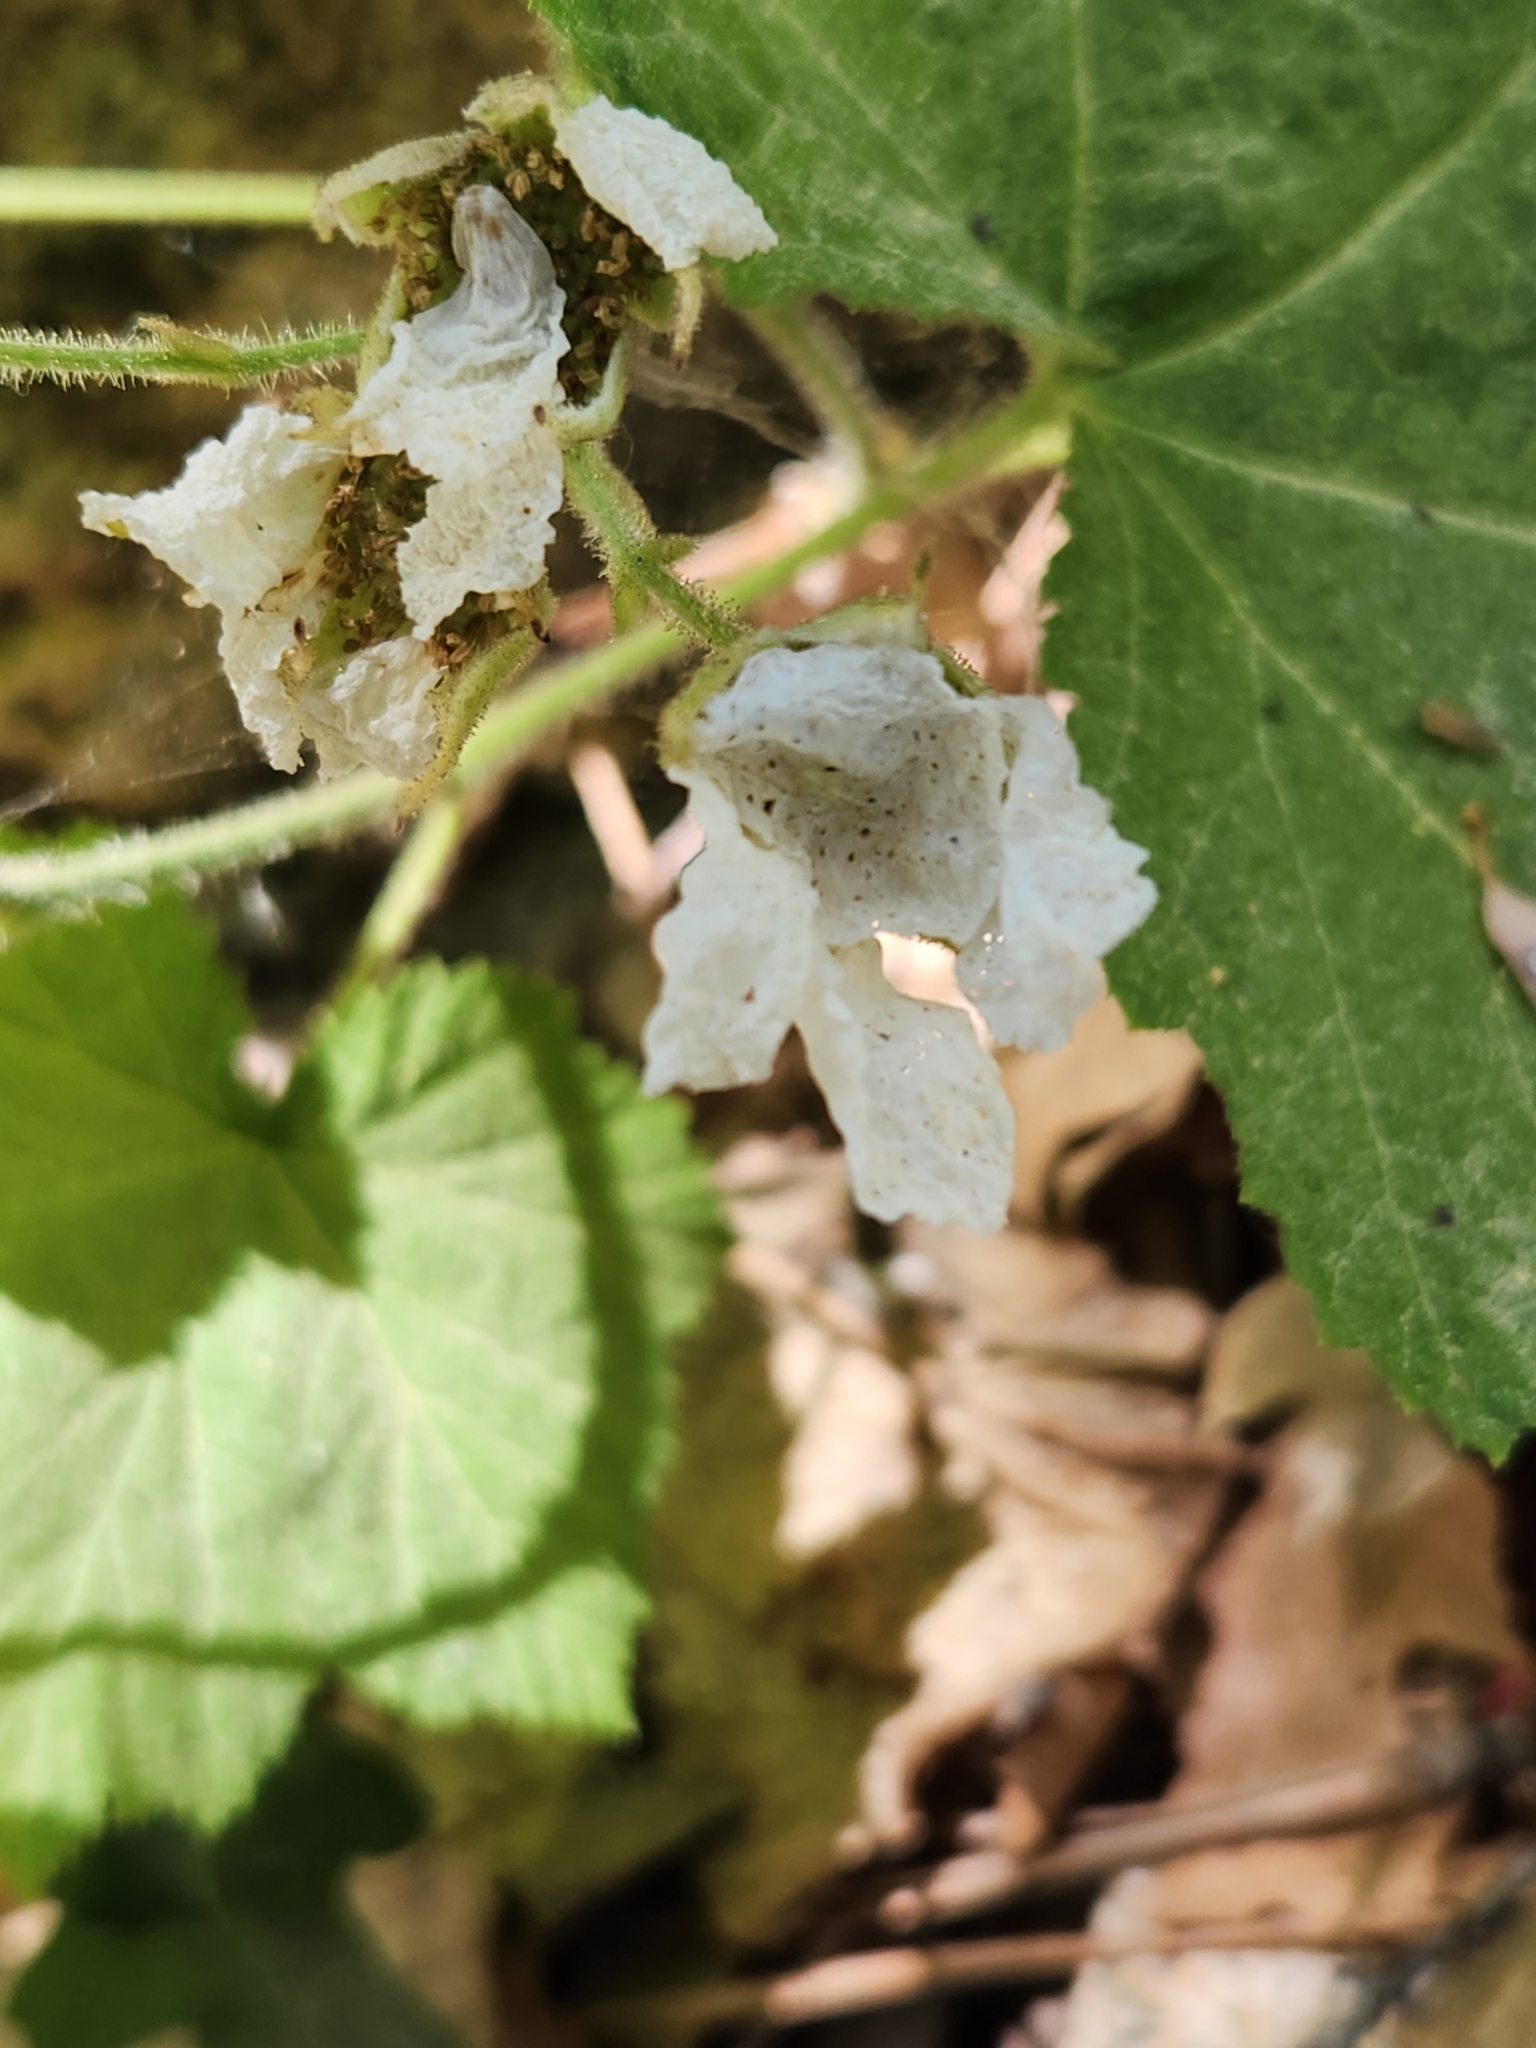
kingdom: Plantae
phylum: Tracheophyta
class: Magnoliopsida
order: Rosales
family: Rosaceae
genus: Rubus
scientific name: Rubus parviflorus
